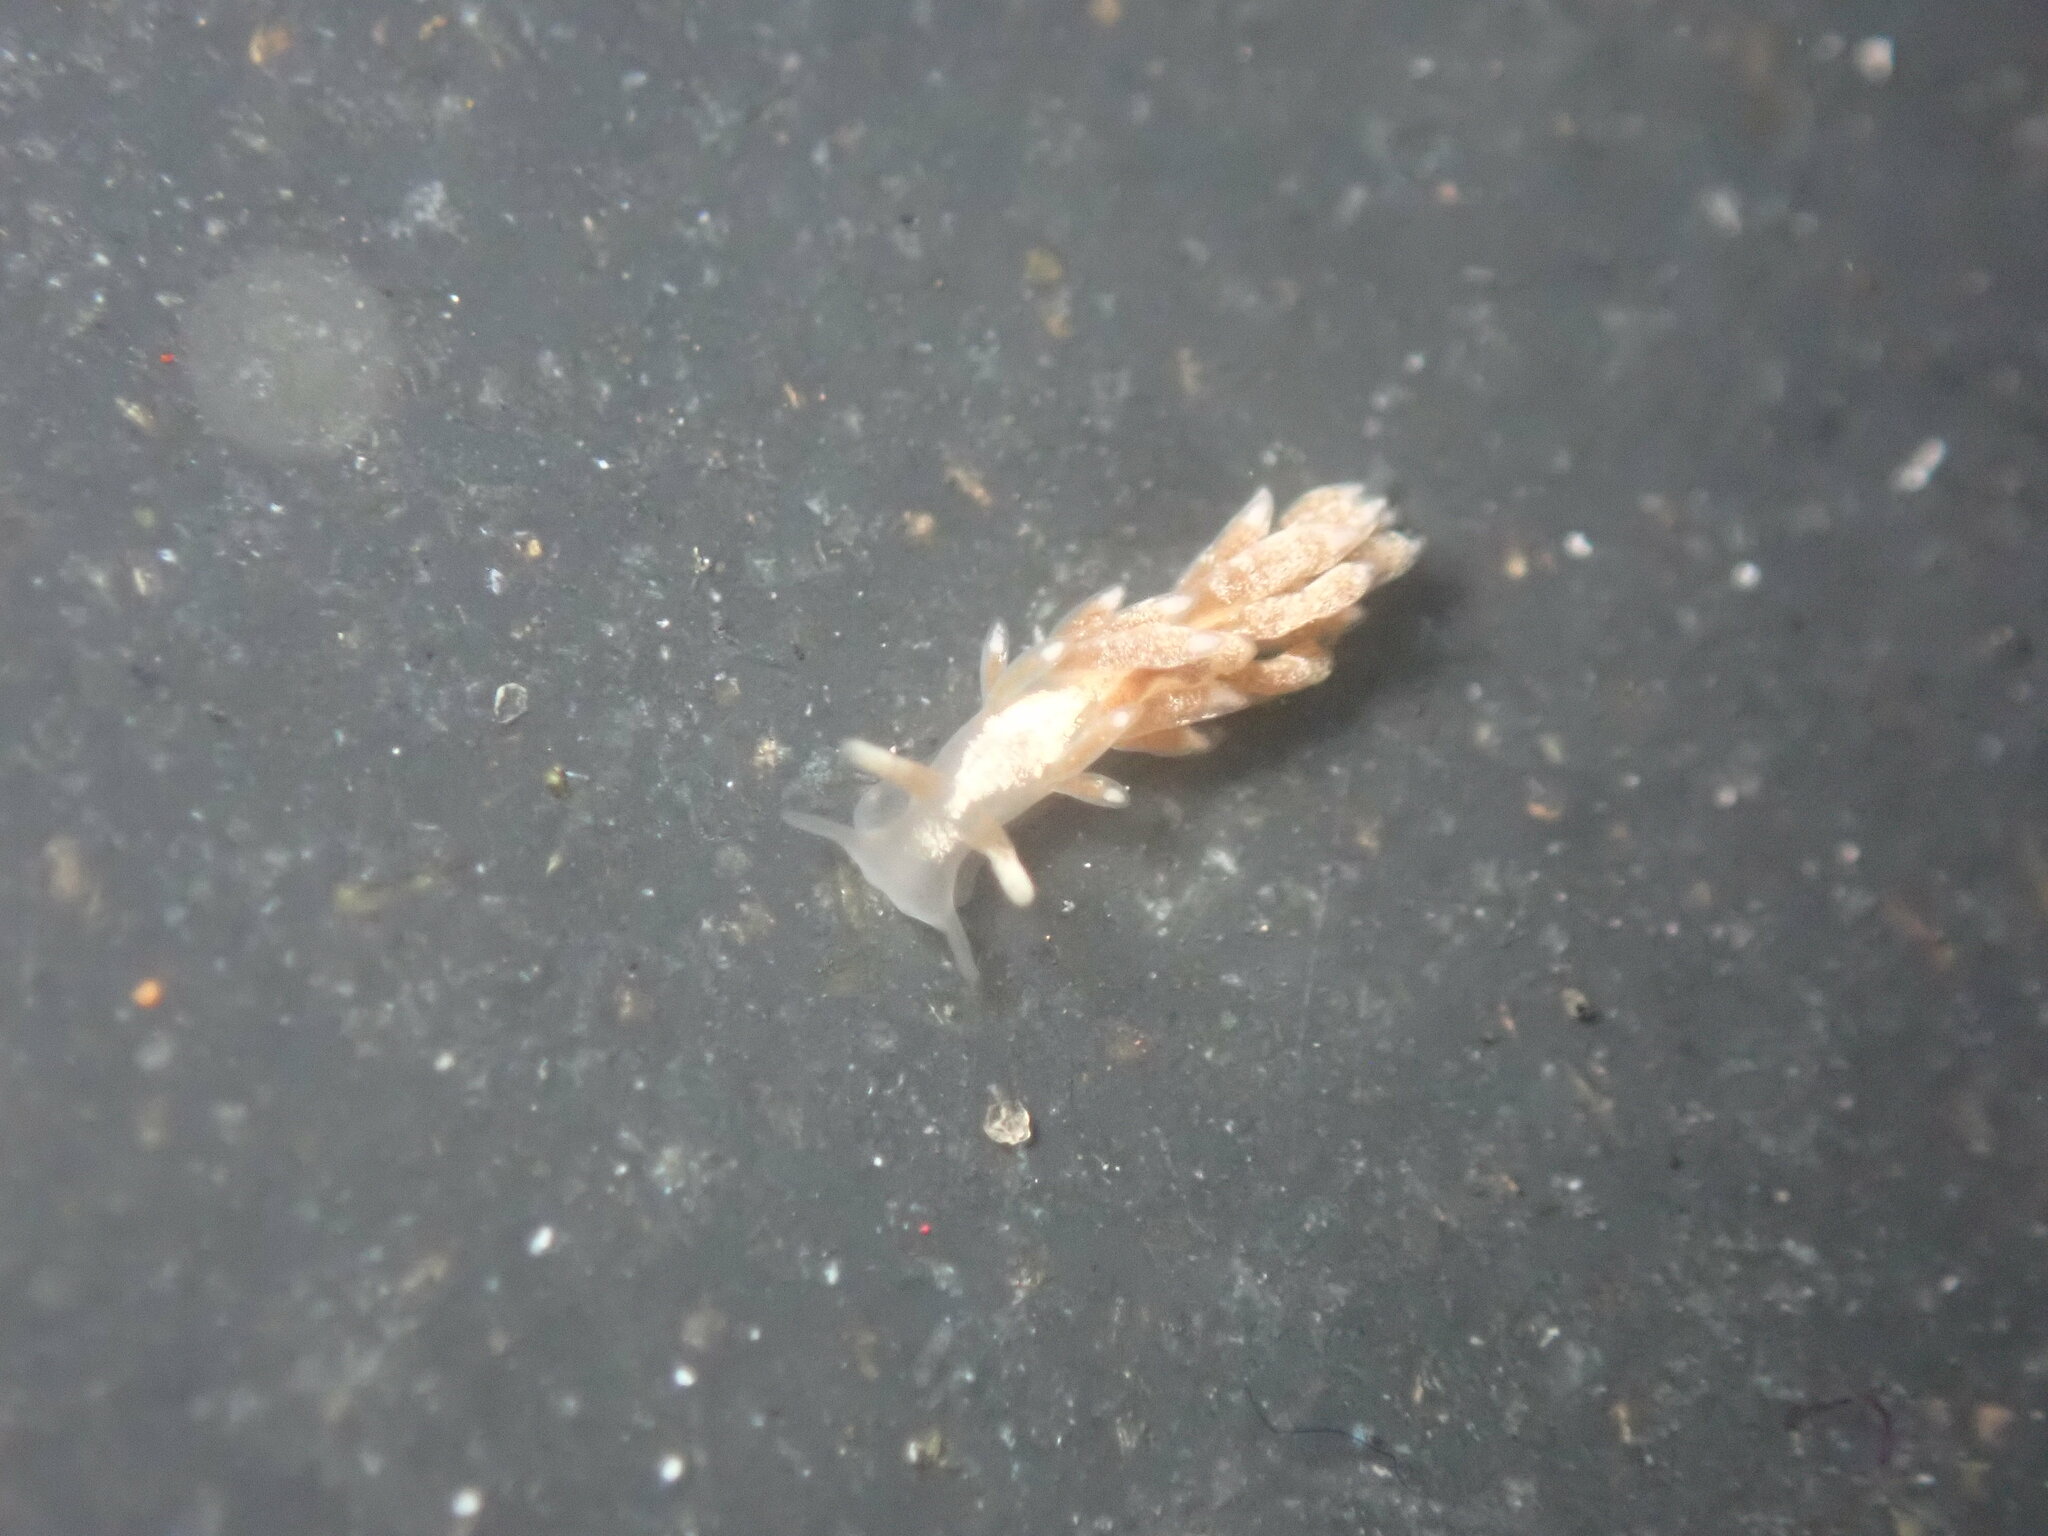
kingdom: Animalia
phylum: Mollusca
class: Gastropoda
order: Nudibranchia
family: Trinchesiidae
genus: Trinchesia
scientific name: Trinchesia albocrusta
